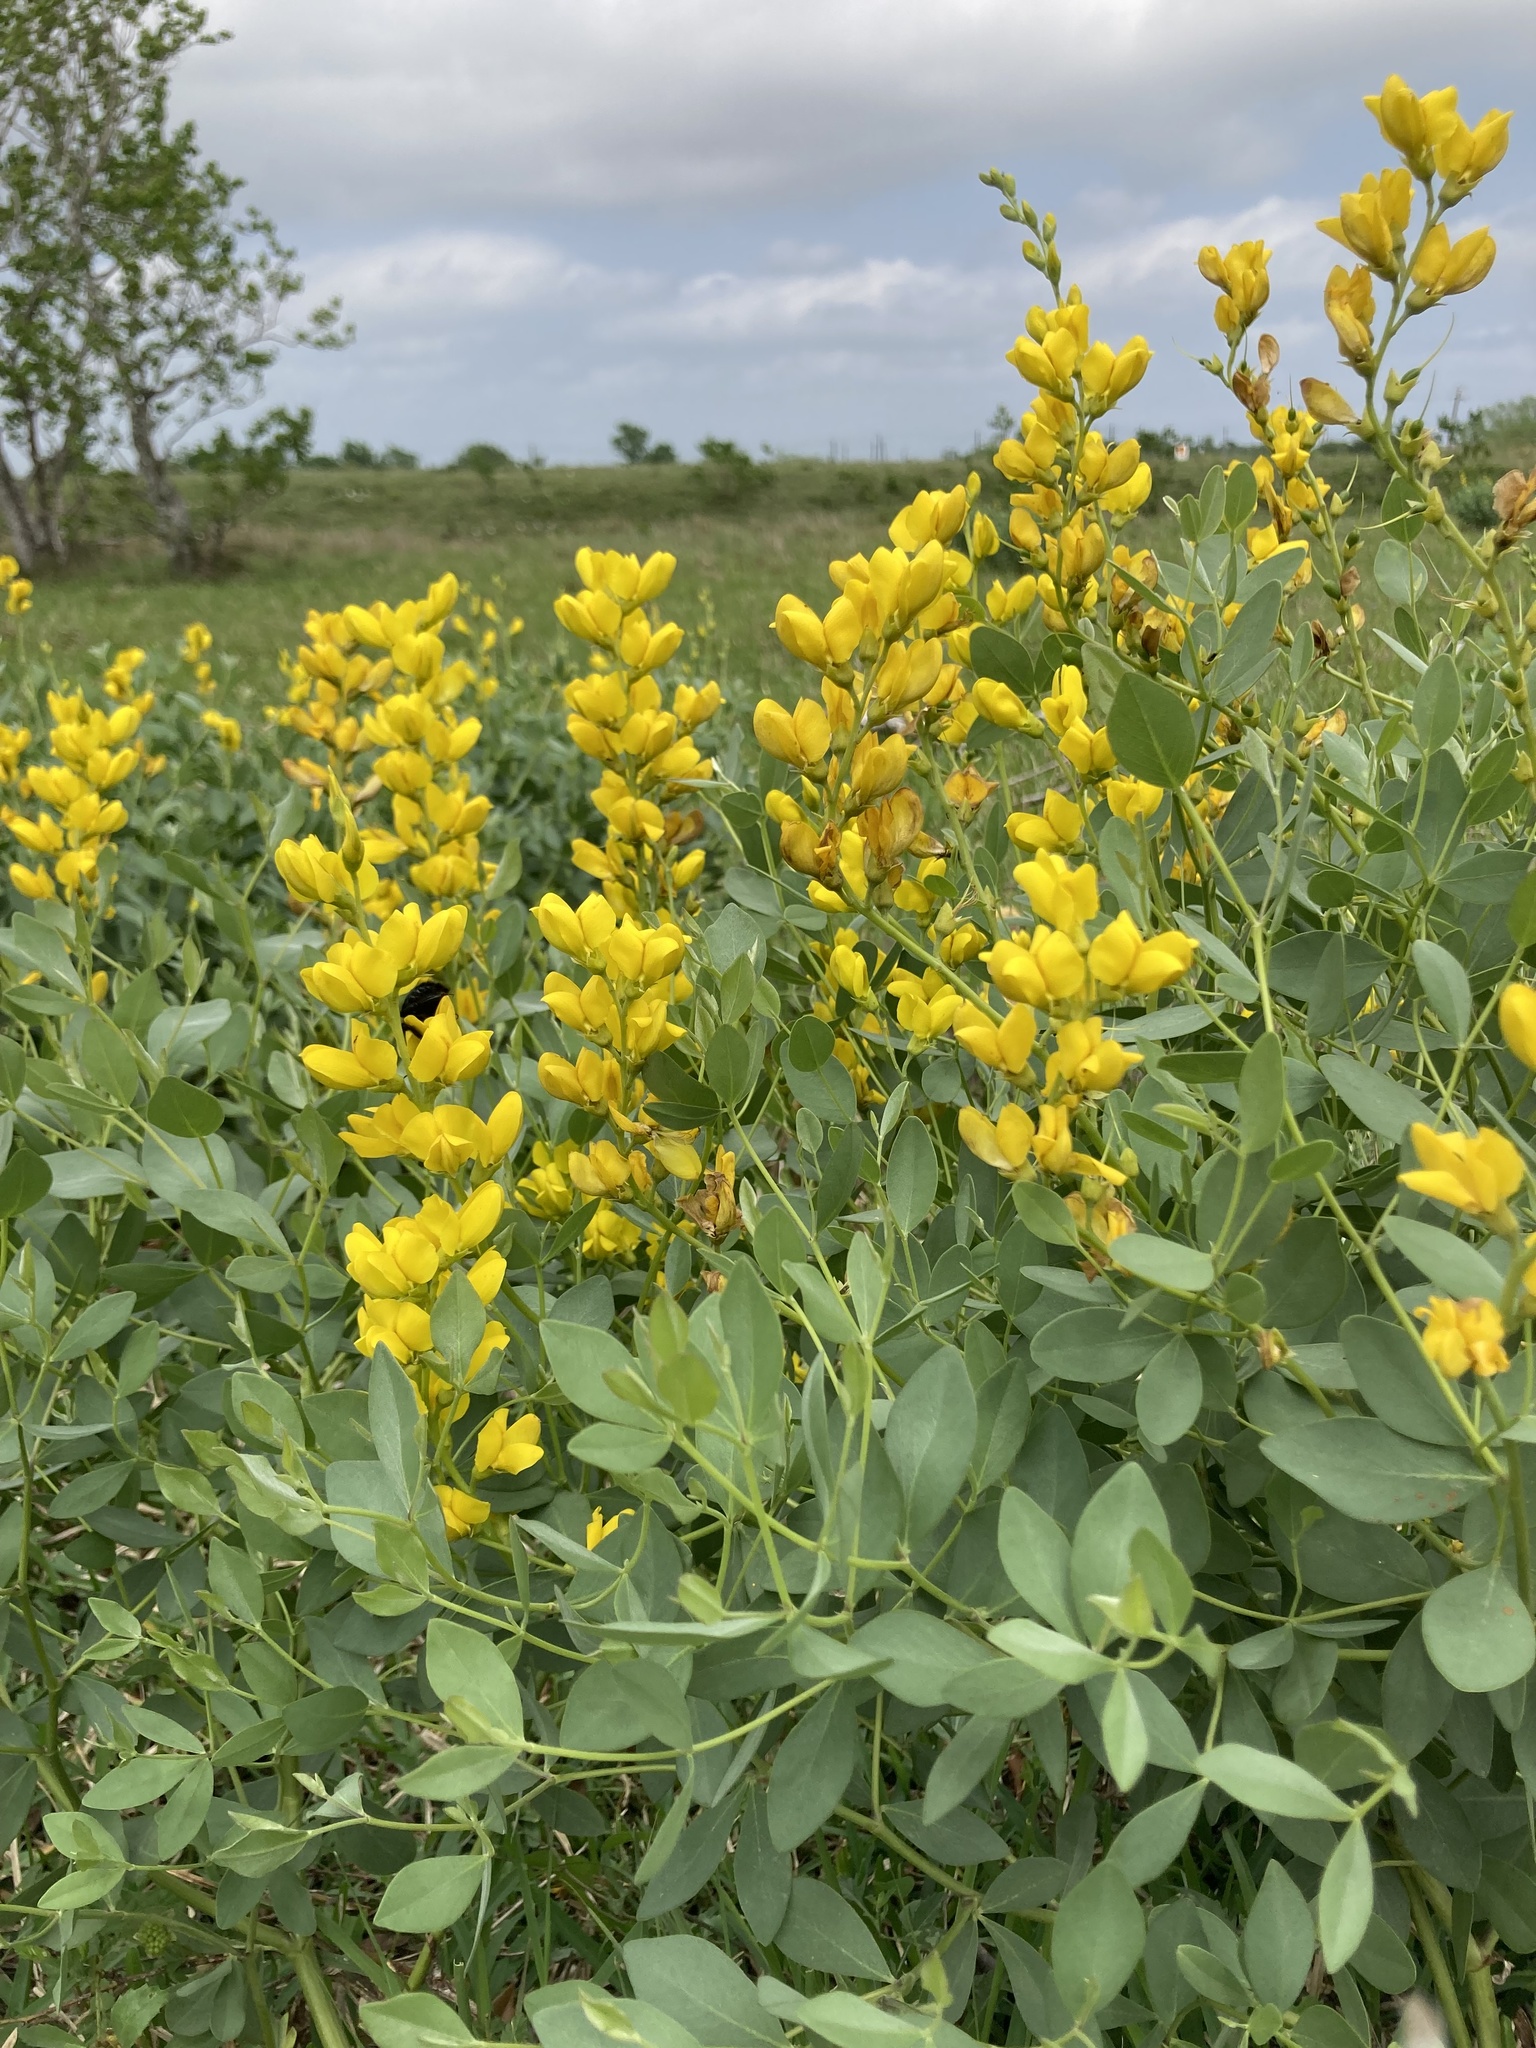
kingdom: Plantae
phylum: Tracheophyta
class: Magnoliopsida
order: Fabales
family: Fabaceae
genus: Baptisia
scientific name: Baptisia sphaerocarpa
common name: Round wild indigo
